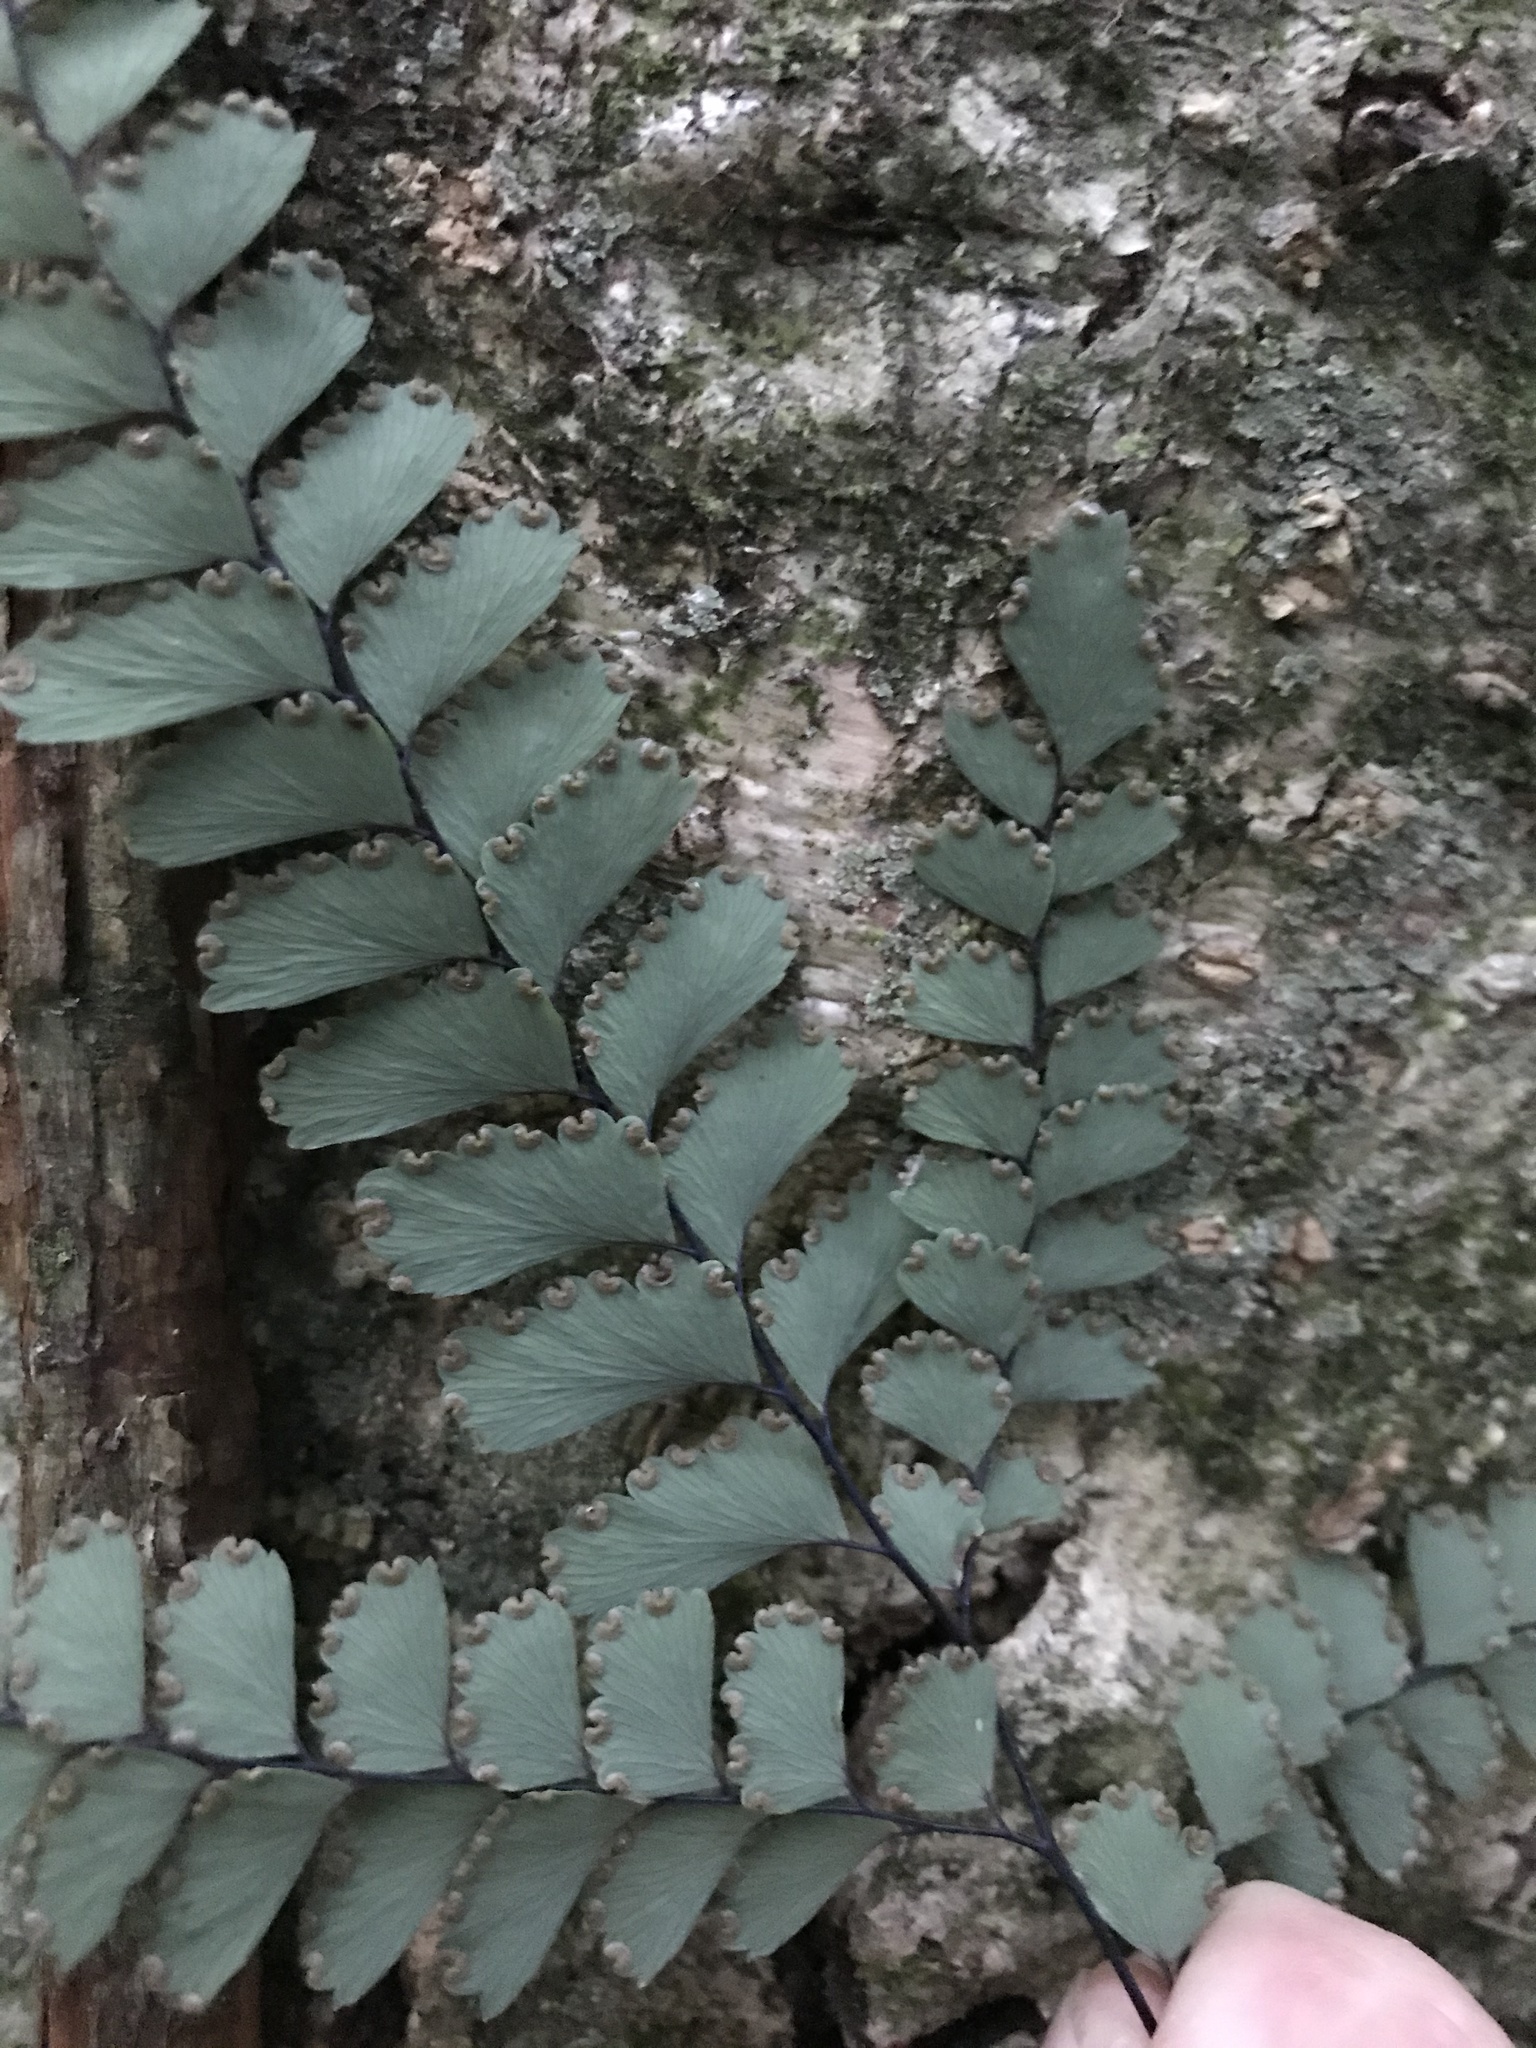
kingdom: Plantae
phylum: Tracheophyta
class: Polypodiopsida
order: Polypodiales
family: Pteridaceae
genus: Adiantum
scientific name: Adiantum cunninghamii
